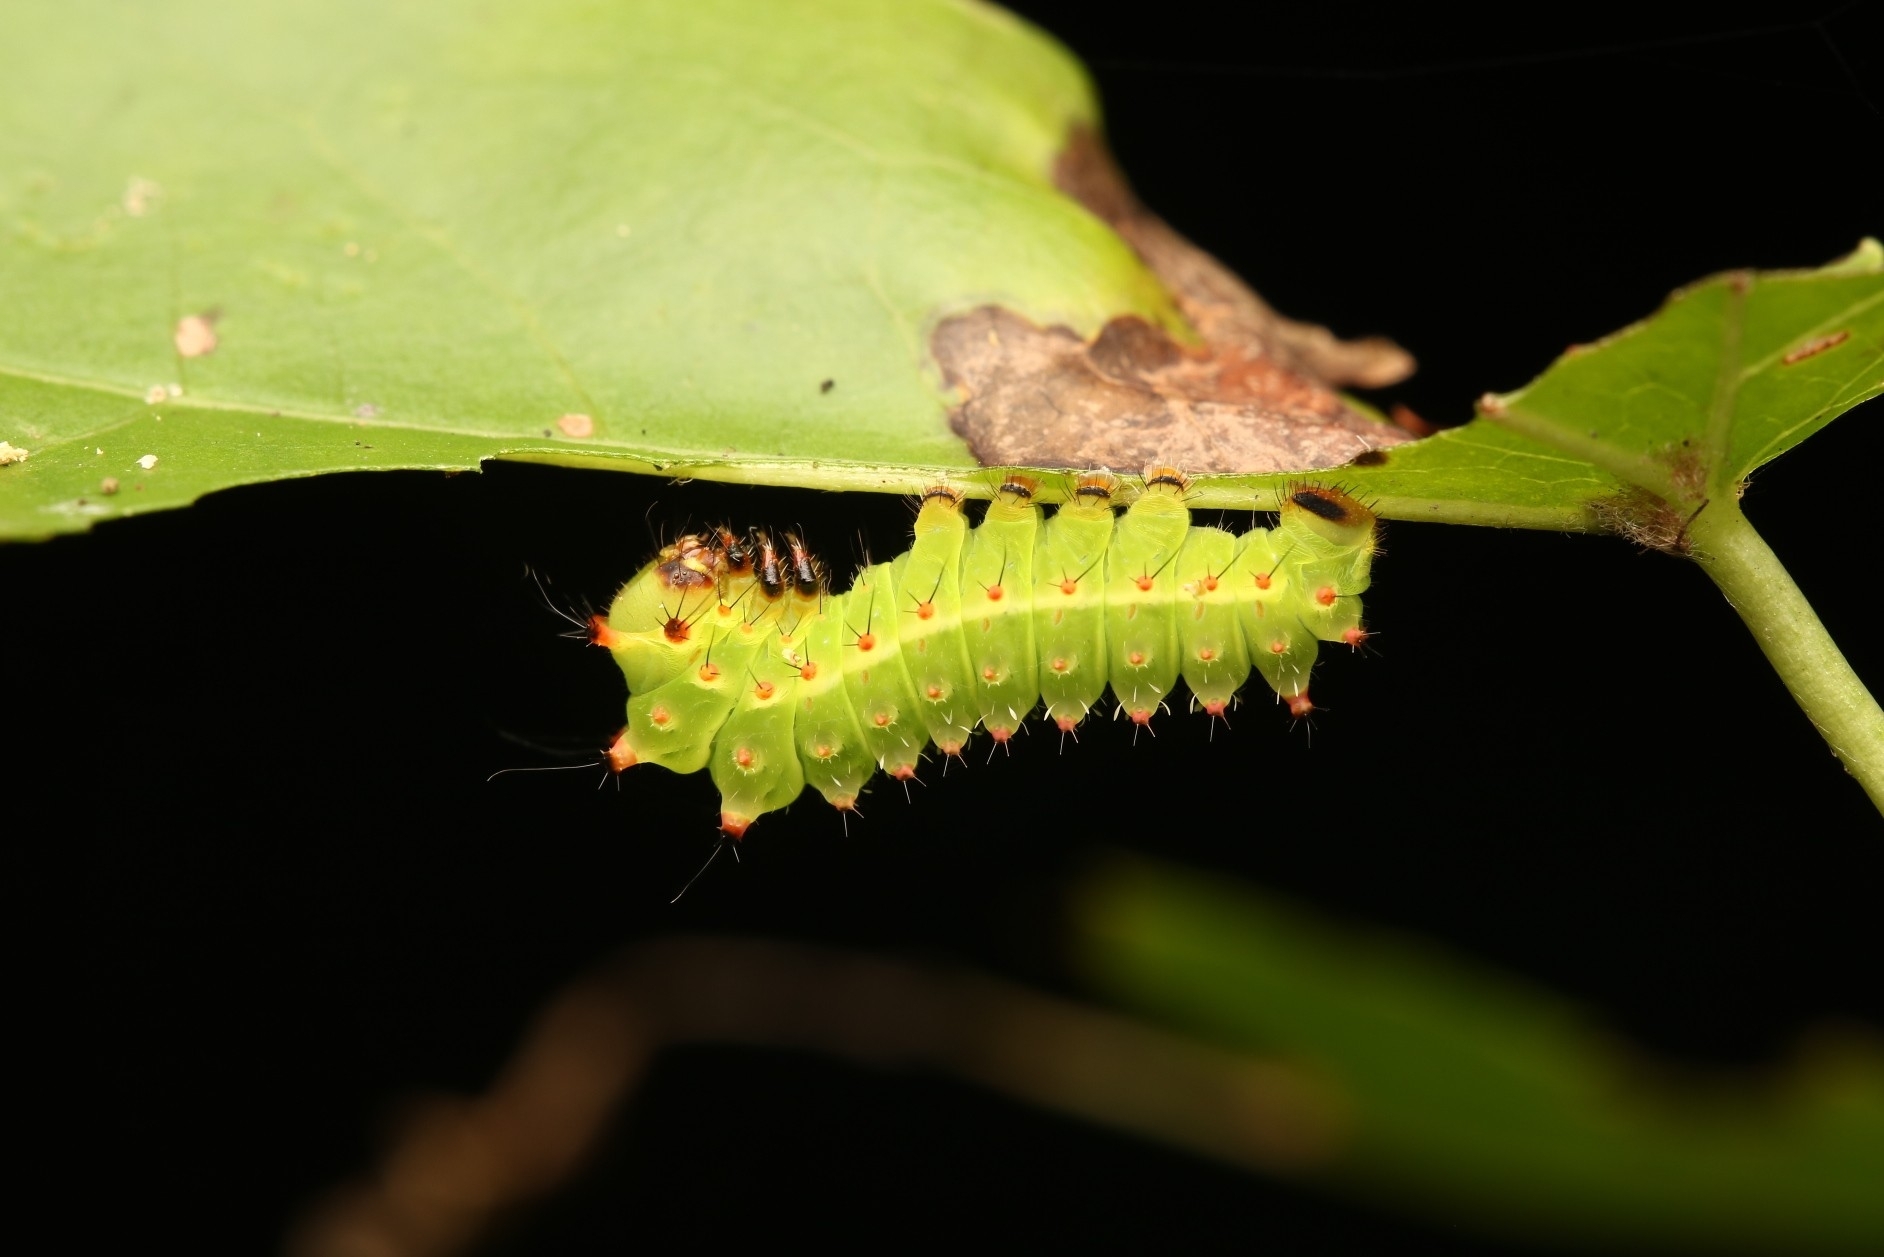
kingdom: Animalia
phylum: Arthropoda
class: Insecta
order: Lepidoptera
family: Saturniidae
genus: Actias
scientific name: Actias luna
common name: Luna moth
